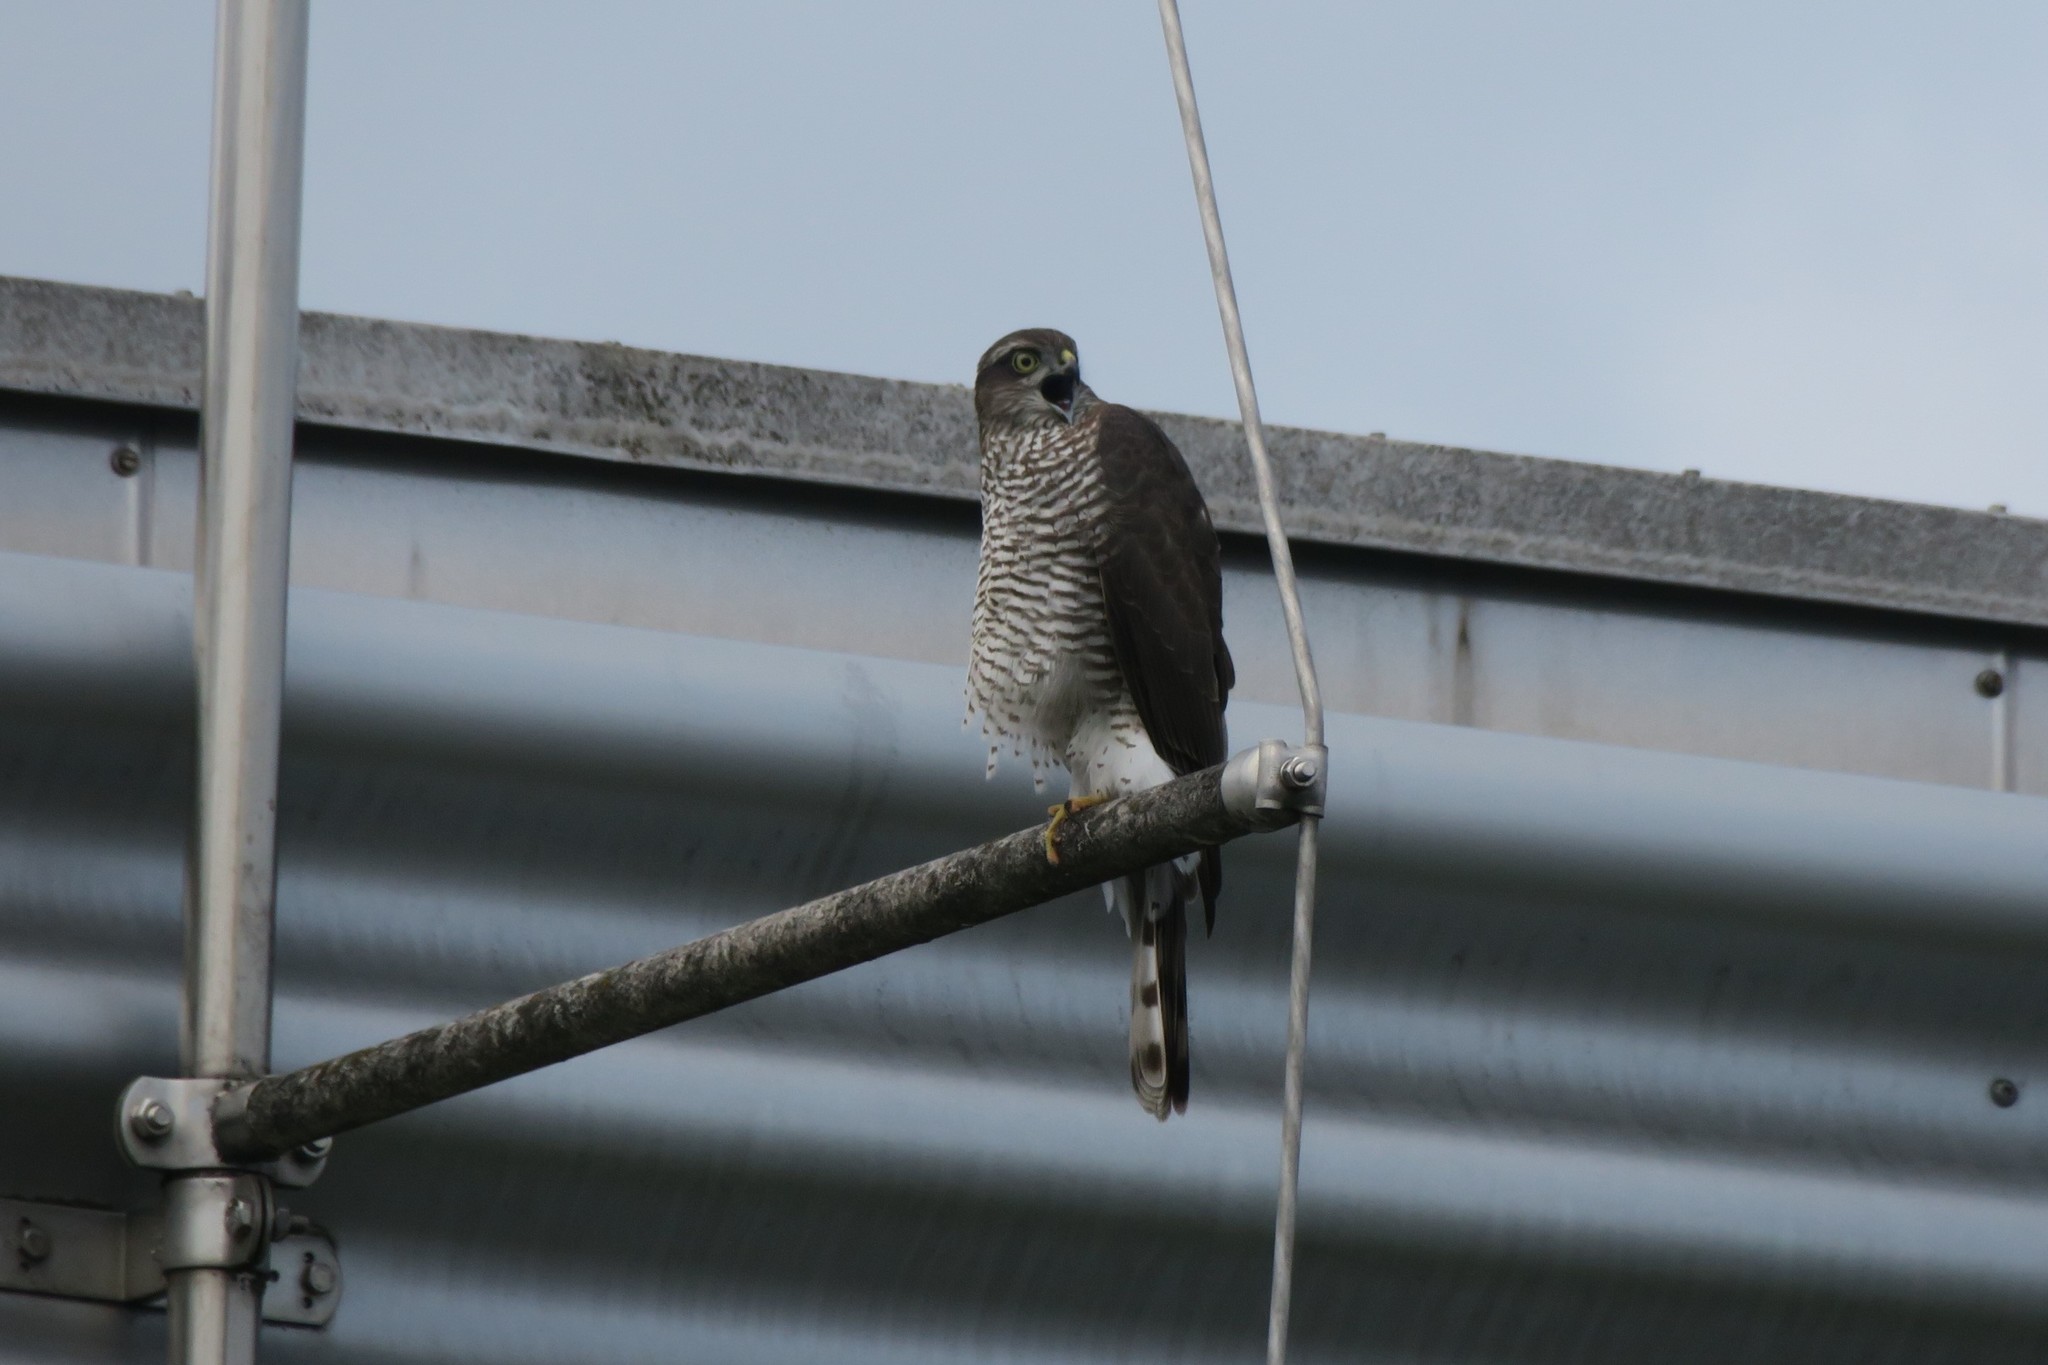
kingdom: Animalia
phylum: Chordata
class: Aves
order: Accipitriformes
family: Accipitridae
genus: Accipiter
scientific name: Accipiter nisus
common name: Eurasian sparrowhawk
